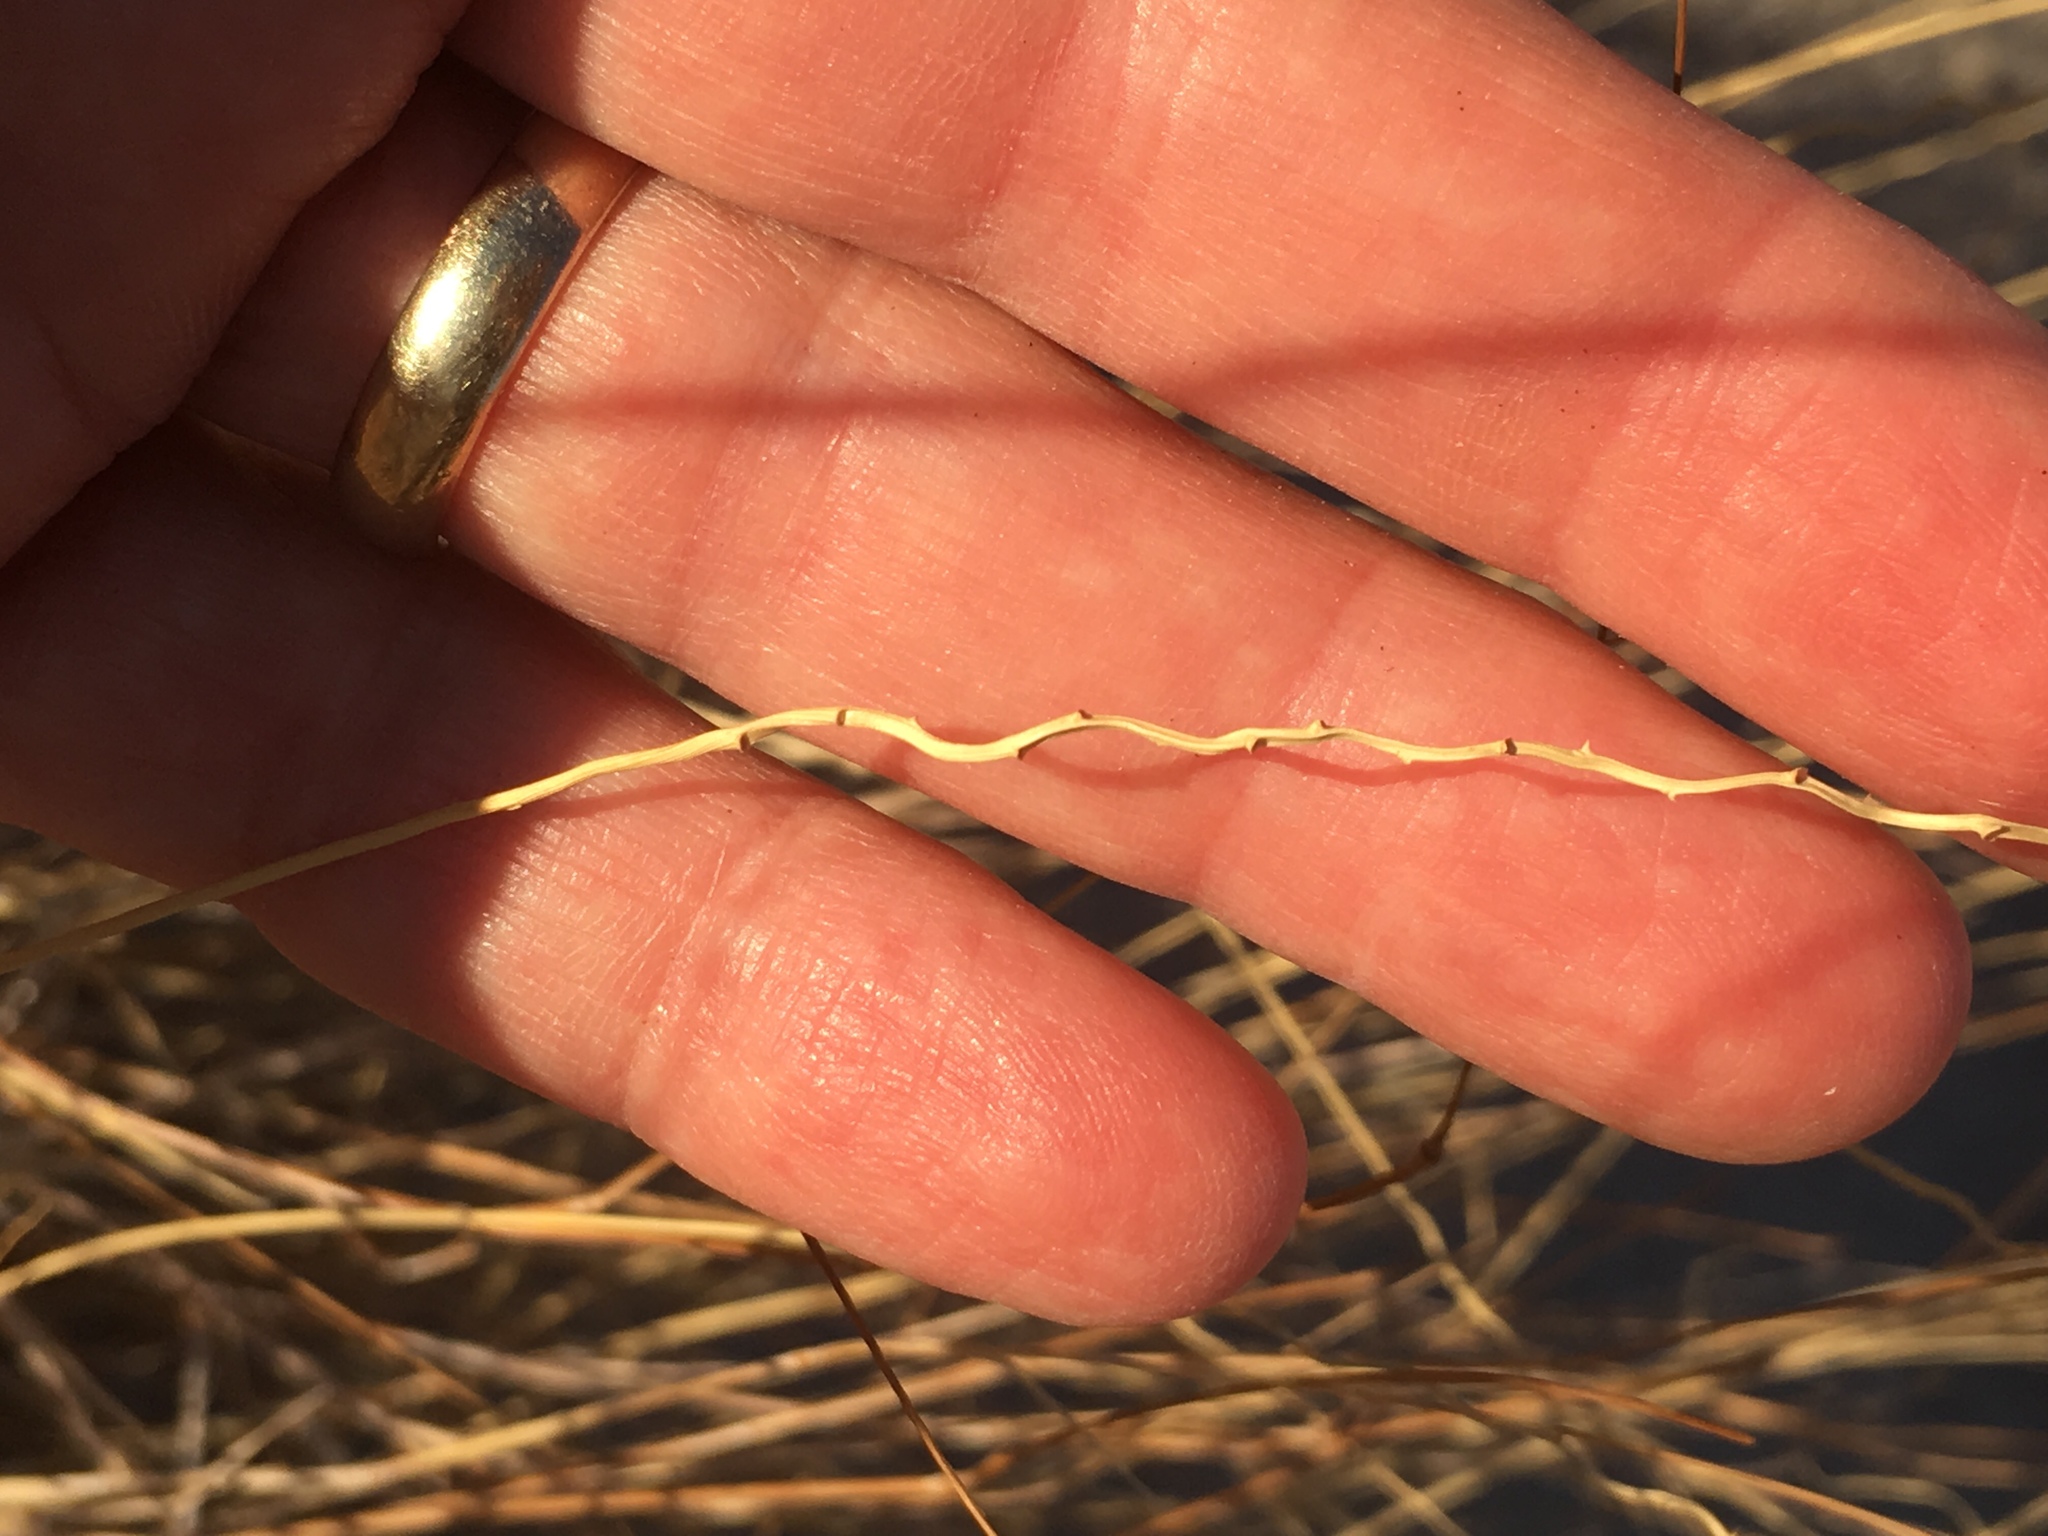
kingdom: Plantae
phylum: Tracheophyta
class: Liliopsida
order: Poales
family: Poaceae
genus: Hilaria
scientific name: Hilaria rigida
